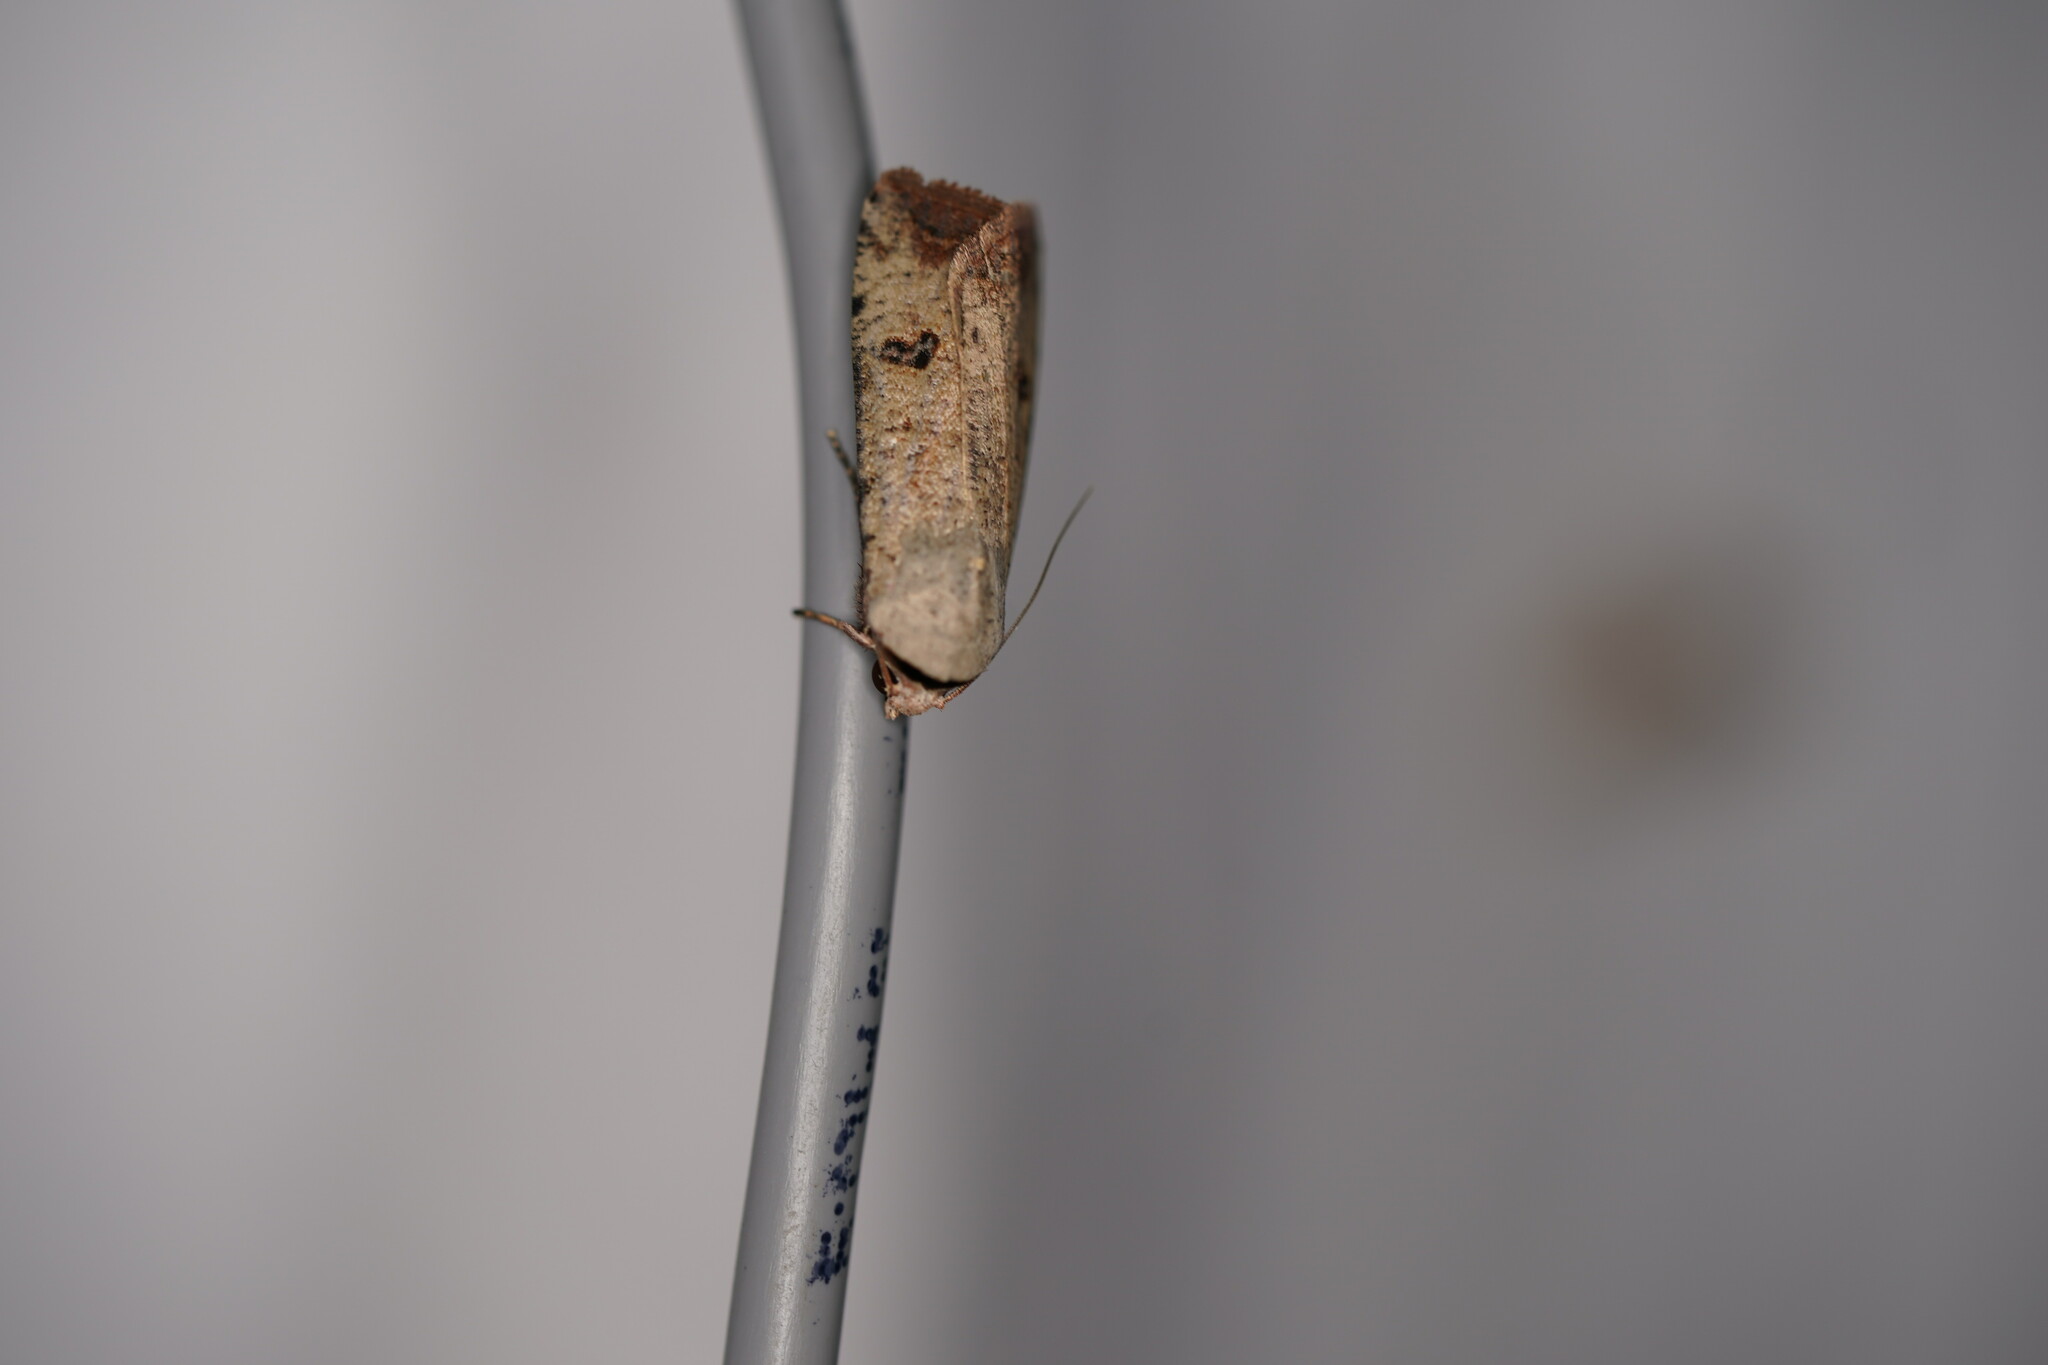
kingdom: Animalia
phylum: Arthropoda
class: Insecta
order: Lepidoptera
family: Noctuidae
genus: Anicla
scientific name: Anicla infecta
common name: Green cutworm
